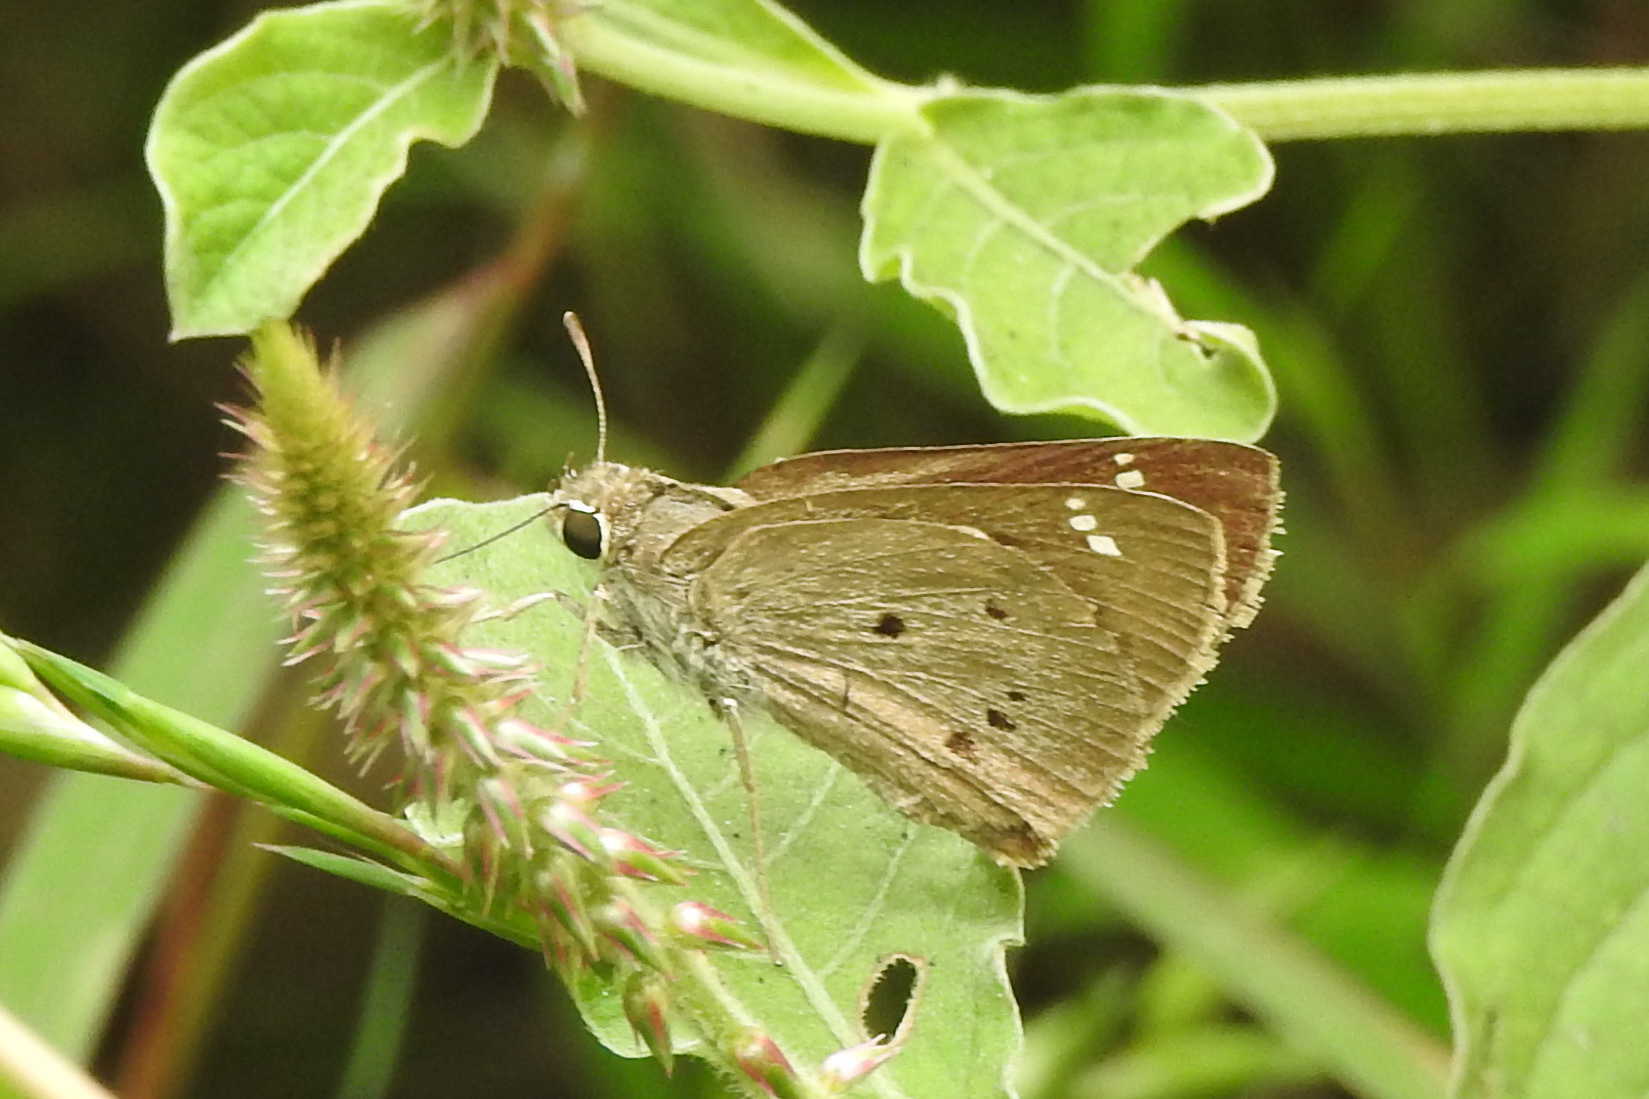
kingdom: Animalia
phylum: Arthropoda
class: Insecta
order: Lepidoptera
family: Hesperiidae
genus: Suastus
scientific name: Suastus gremius
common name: Indian palm bob
